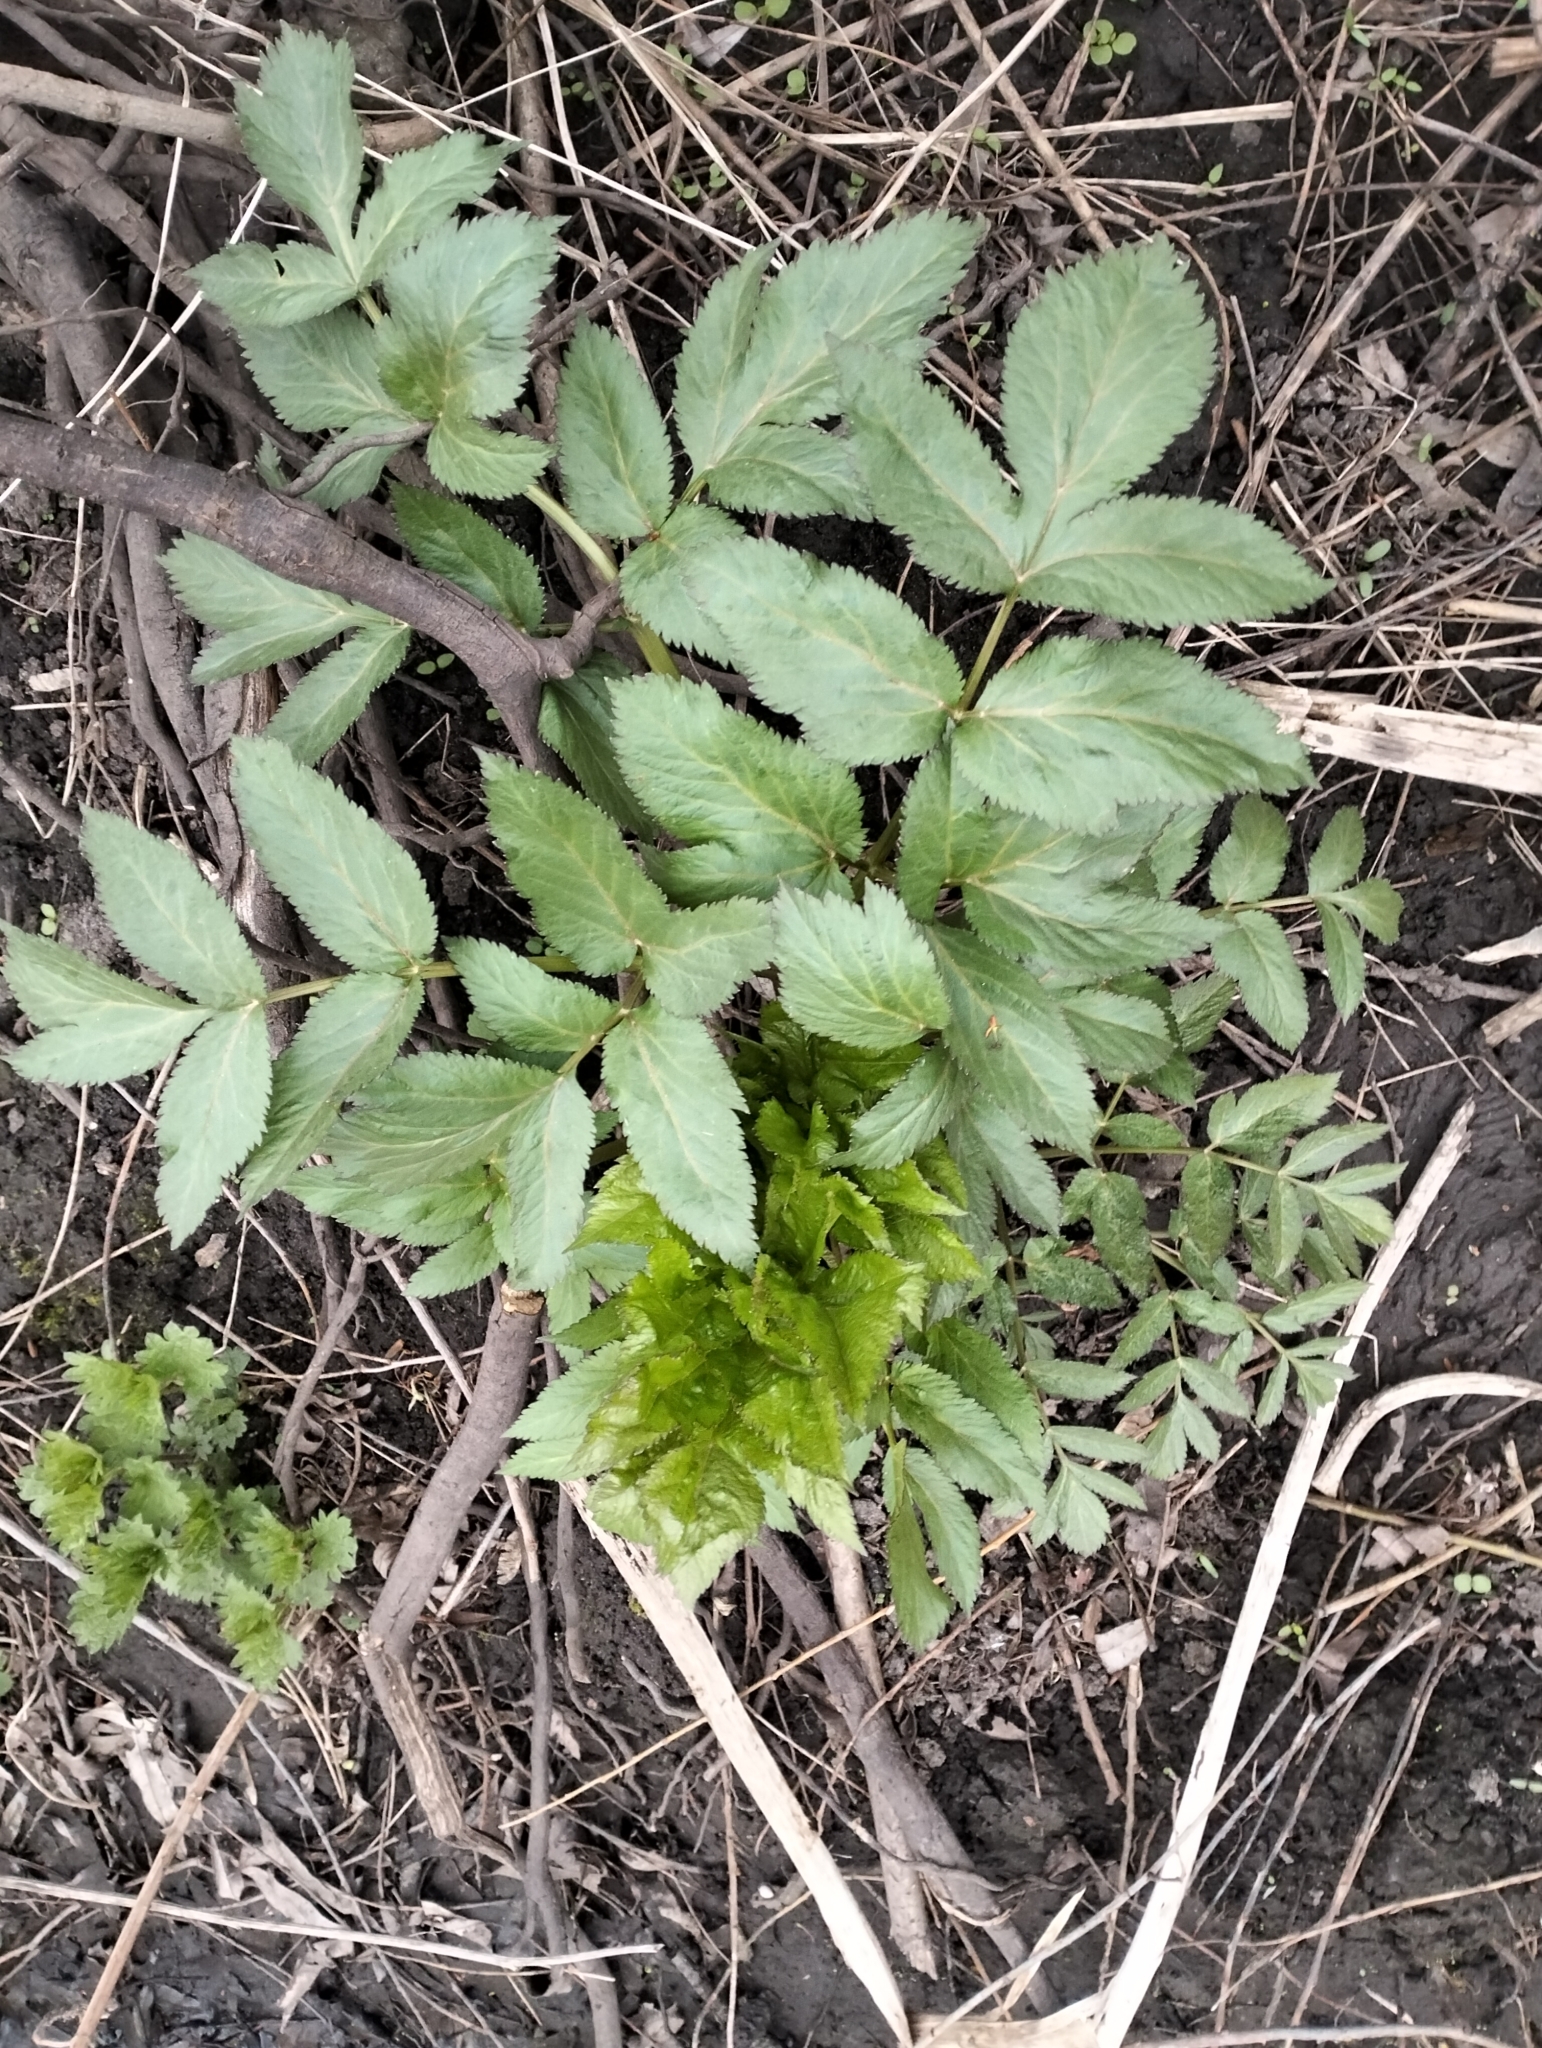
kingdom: Plantae
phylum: Tracheophyta
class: Magnoliopsida
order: Apiales
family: Apiaceae
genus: Angelica
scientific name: Angelica archangelica
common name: Garden angelica
